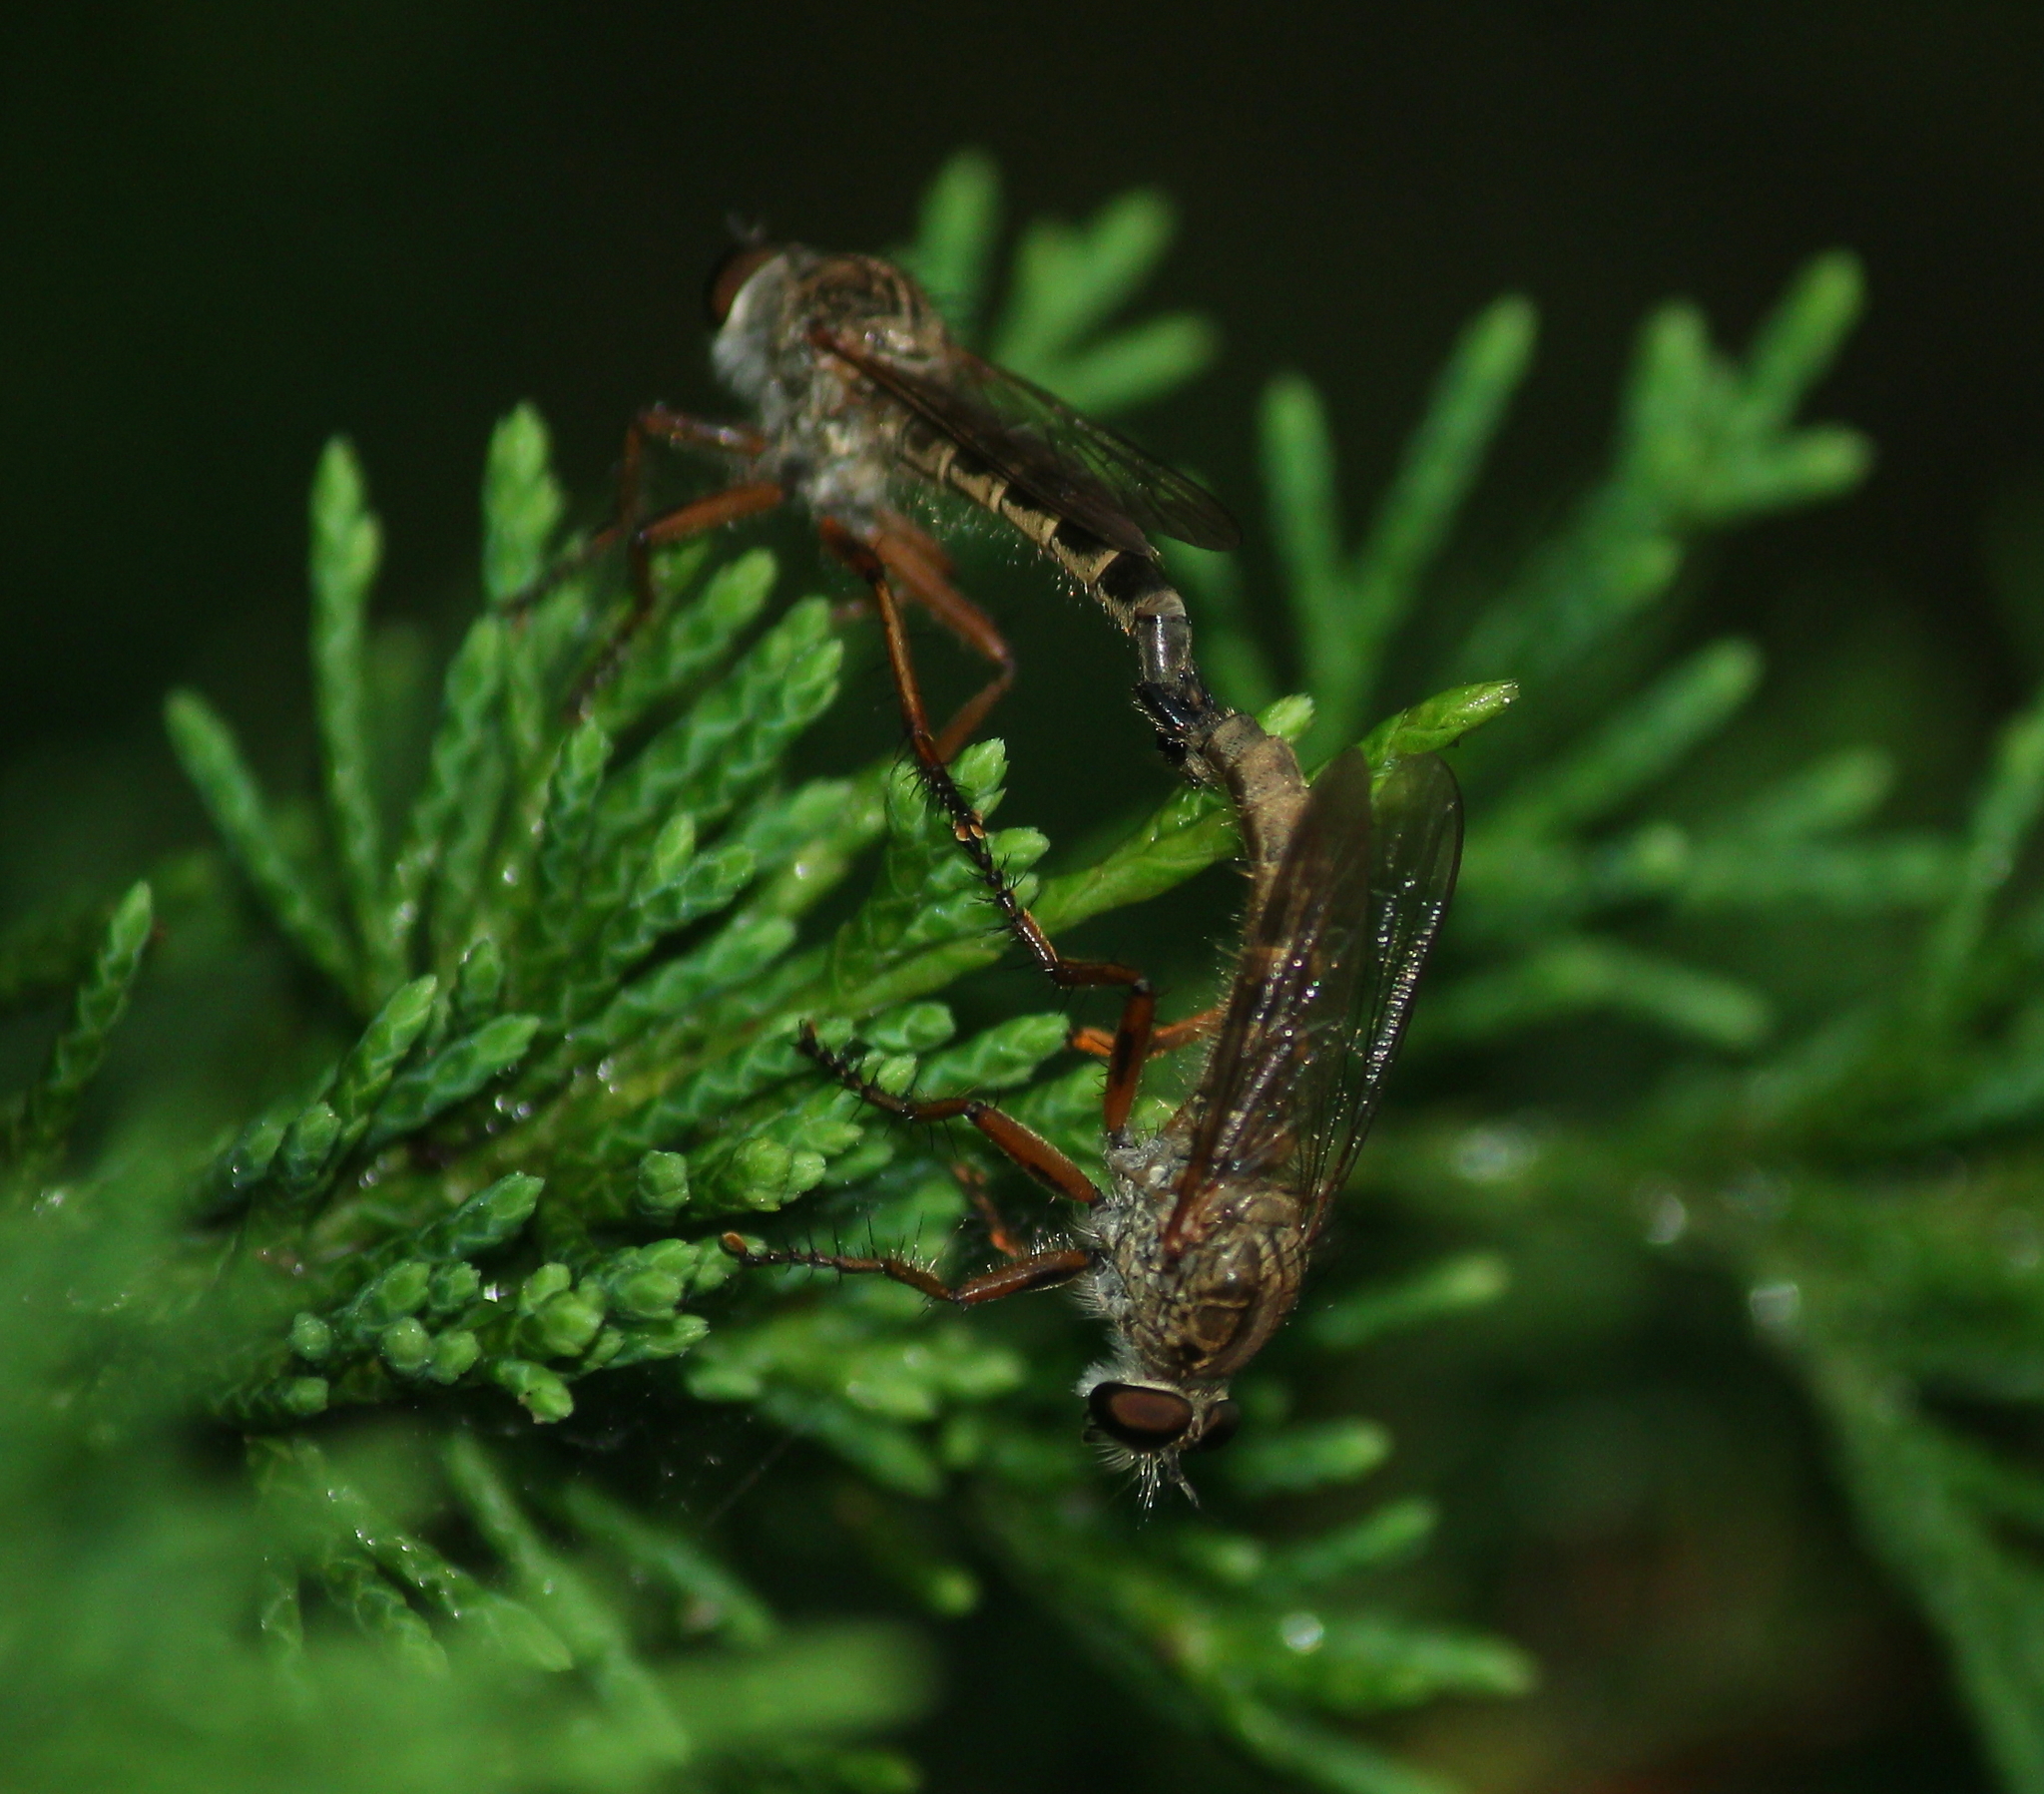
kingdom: Animalia
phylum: Arthropoda
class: Insecta
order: Diptera
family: Asilidae
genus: Philonicus
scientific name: Philonicus rufipennis
